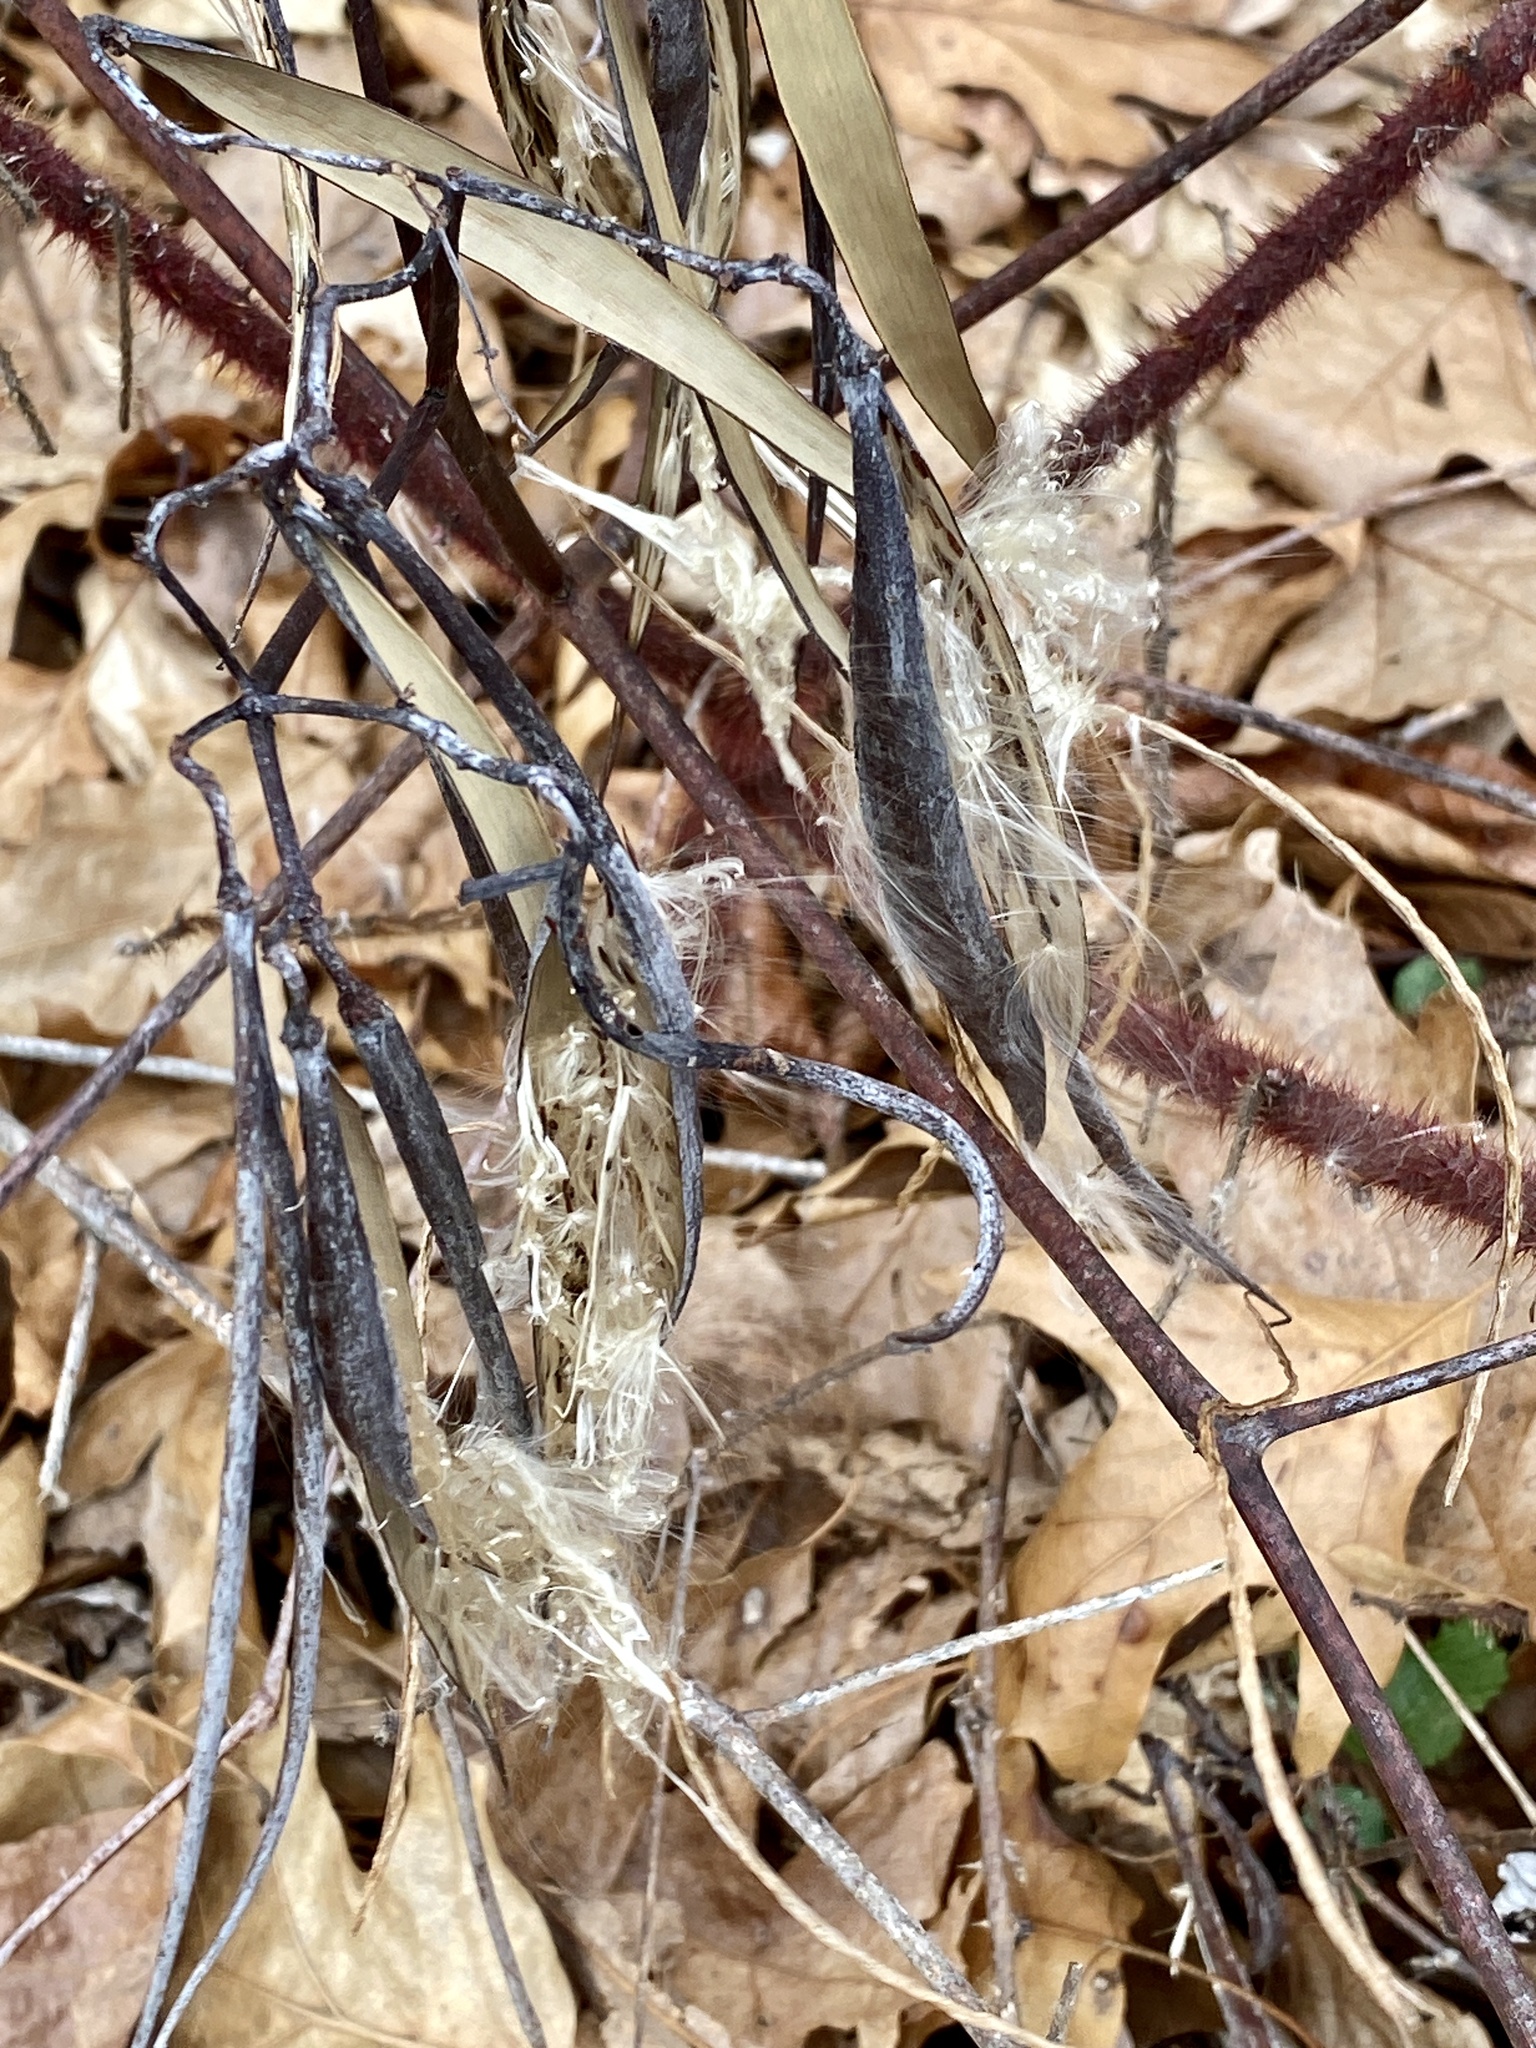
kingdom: Plantae
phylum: Tracheophyta
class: Magnoliopsida
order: Gentianales
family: Apocynaceae
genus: Apocynum
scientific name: Apocynum cannabinum
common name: Hemp dogbane
